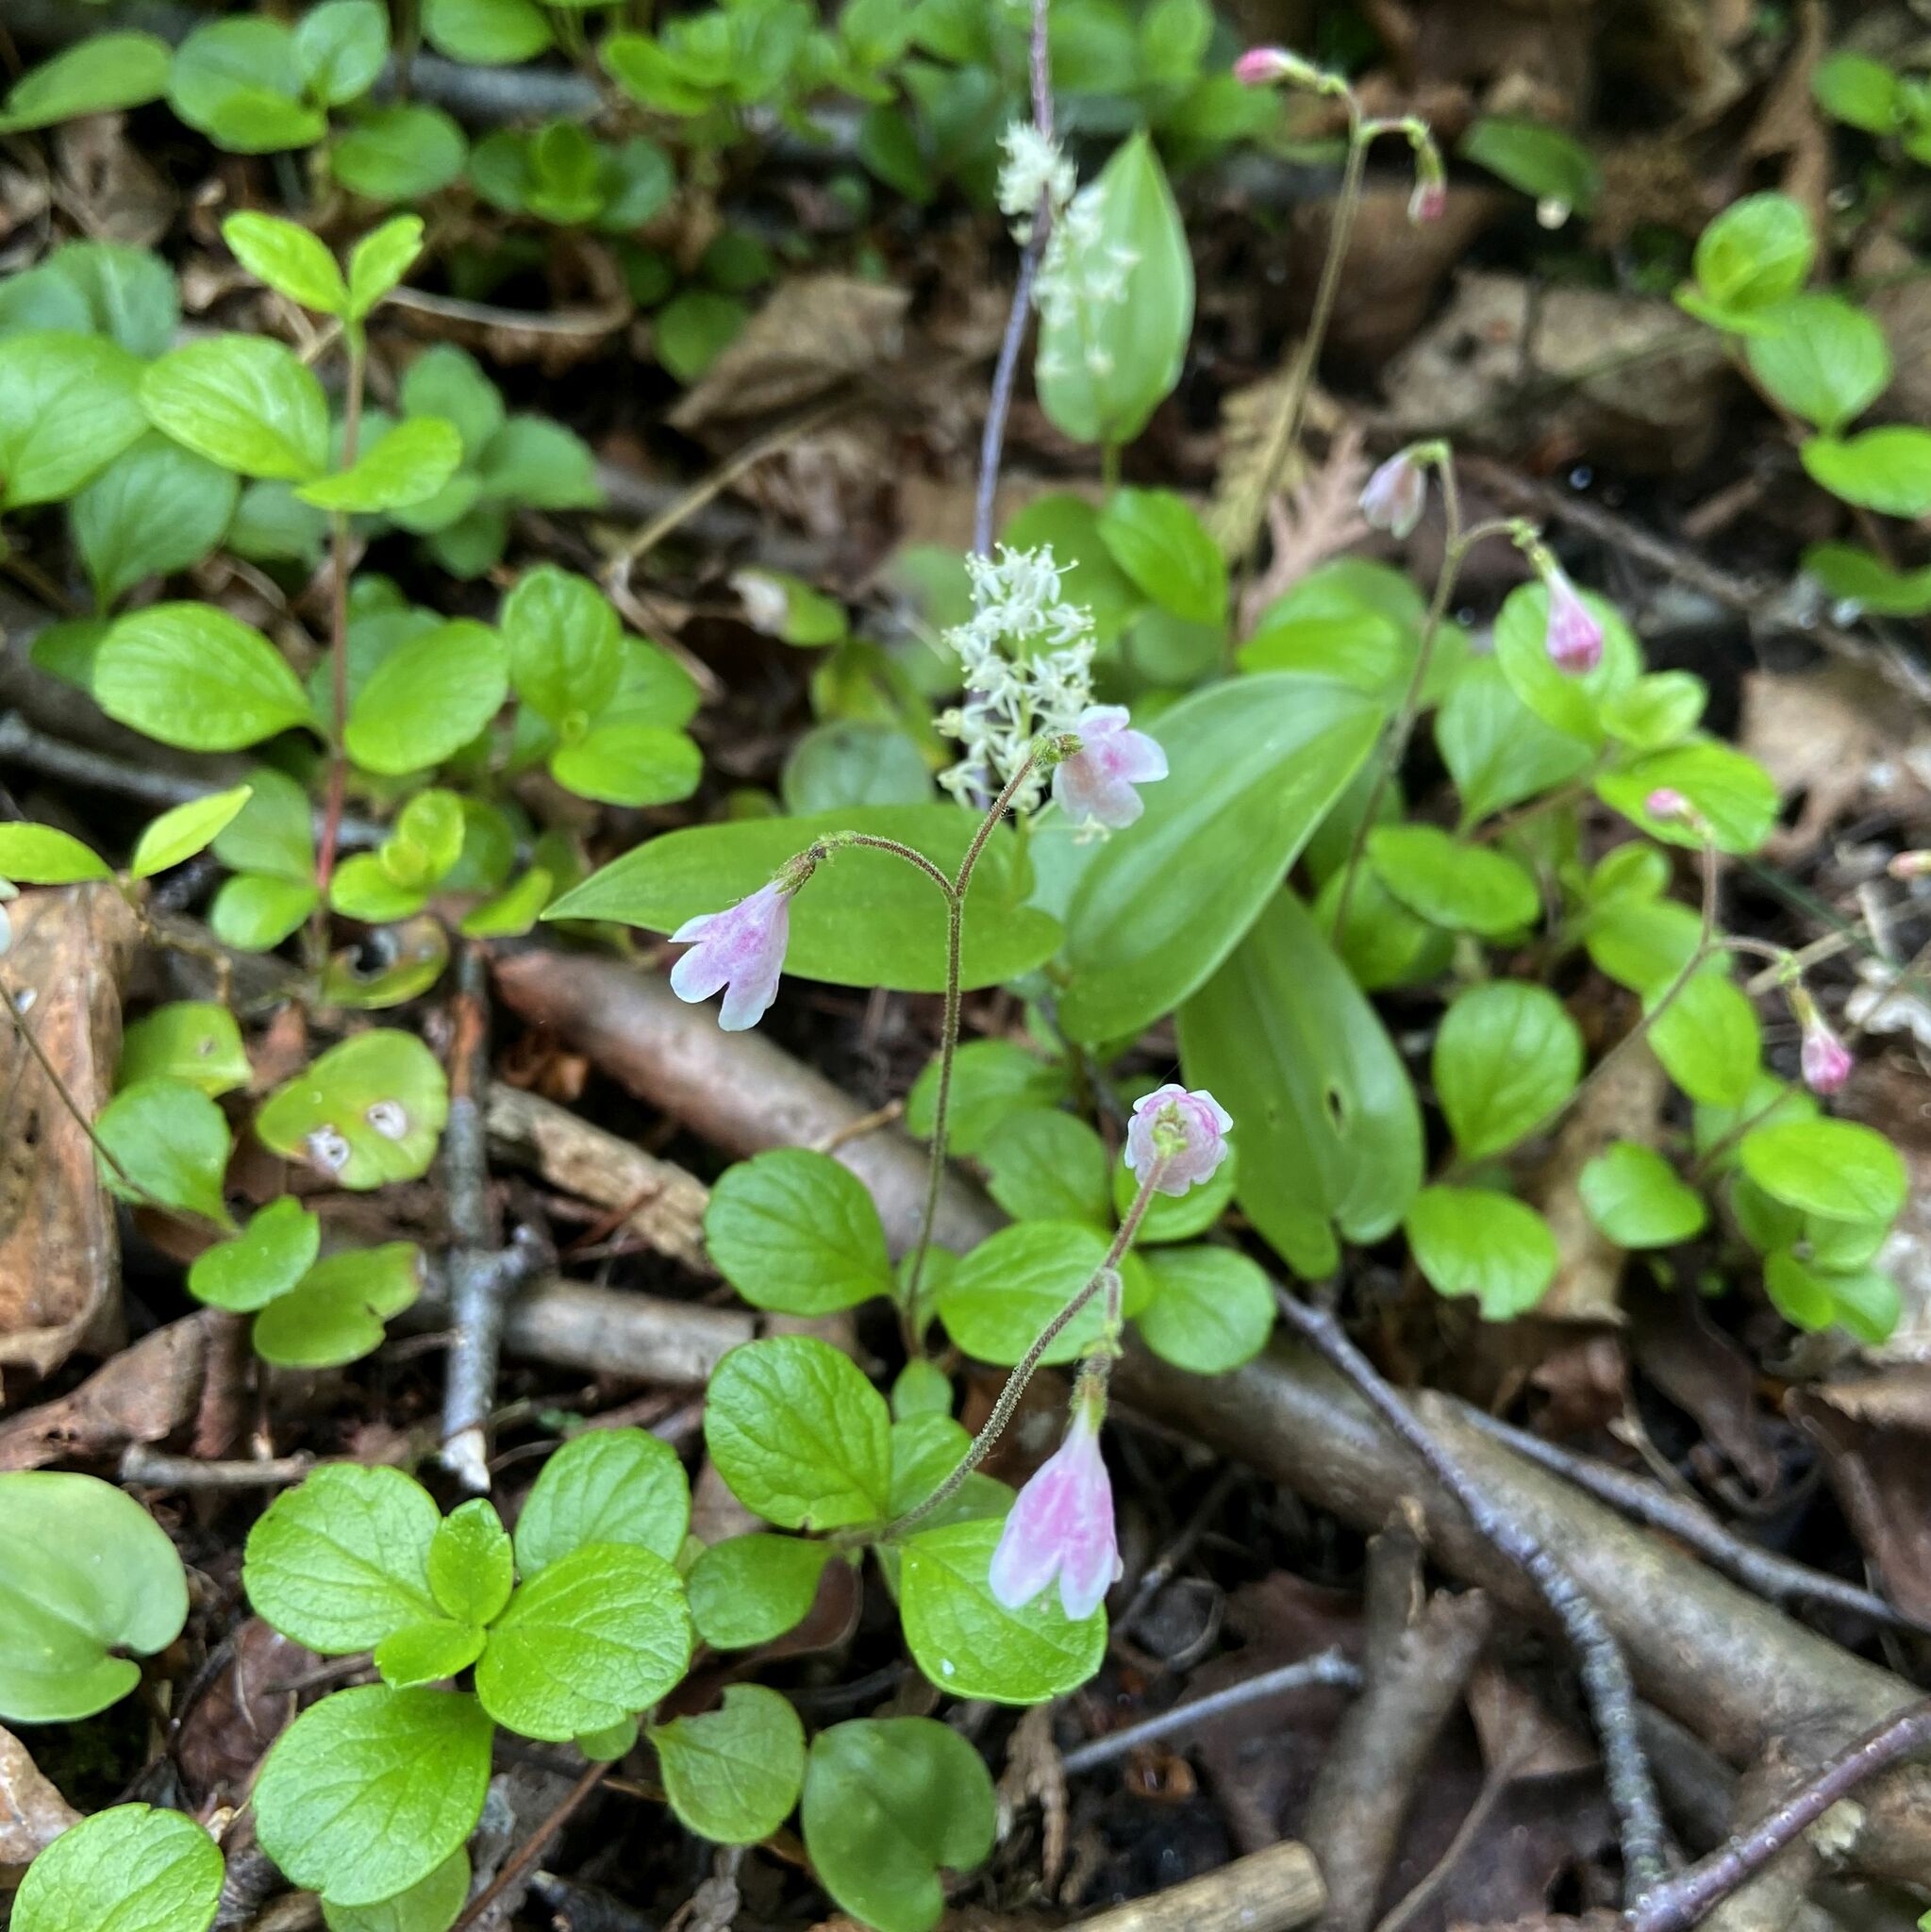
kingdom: Plantae
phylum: Tracheophyta
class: Magnoliopsida
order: Dipsacales
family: Caprifoliaceae
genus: Linnaea
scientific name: Linnaea borealis
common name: Twinflower
